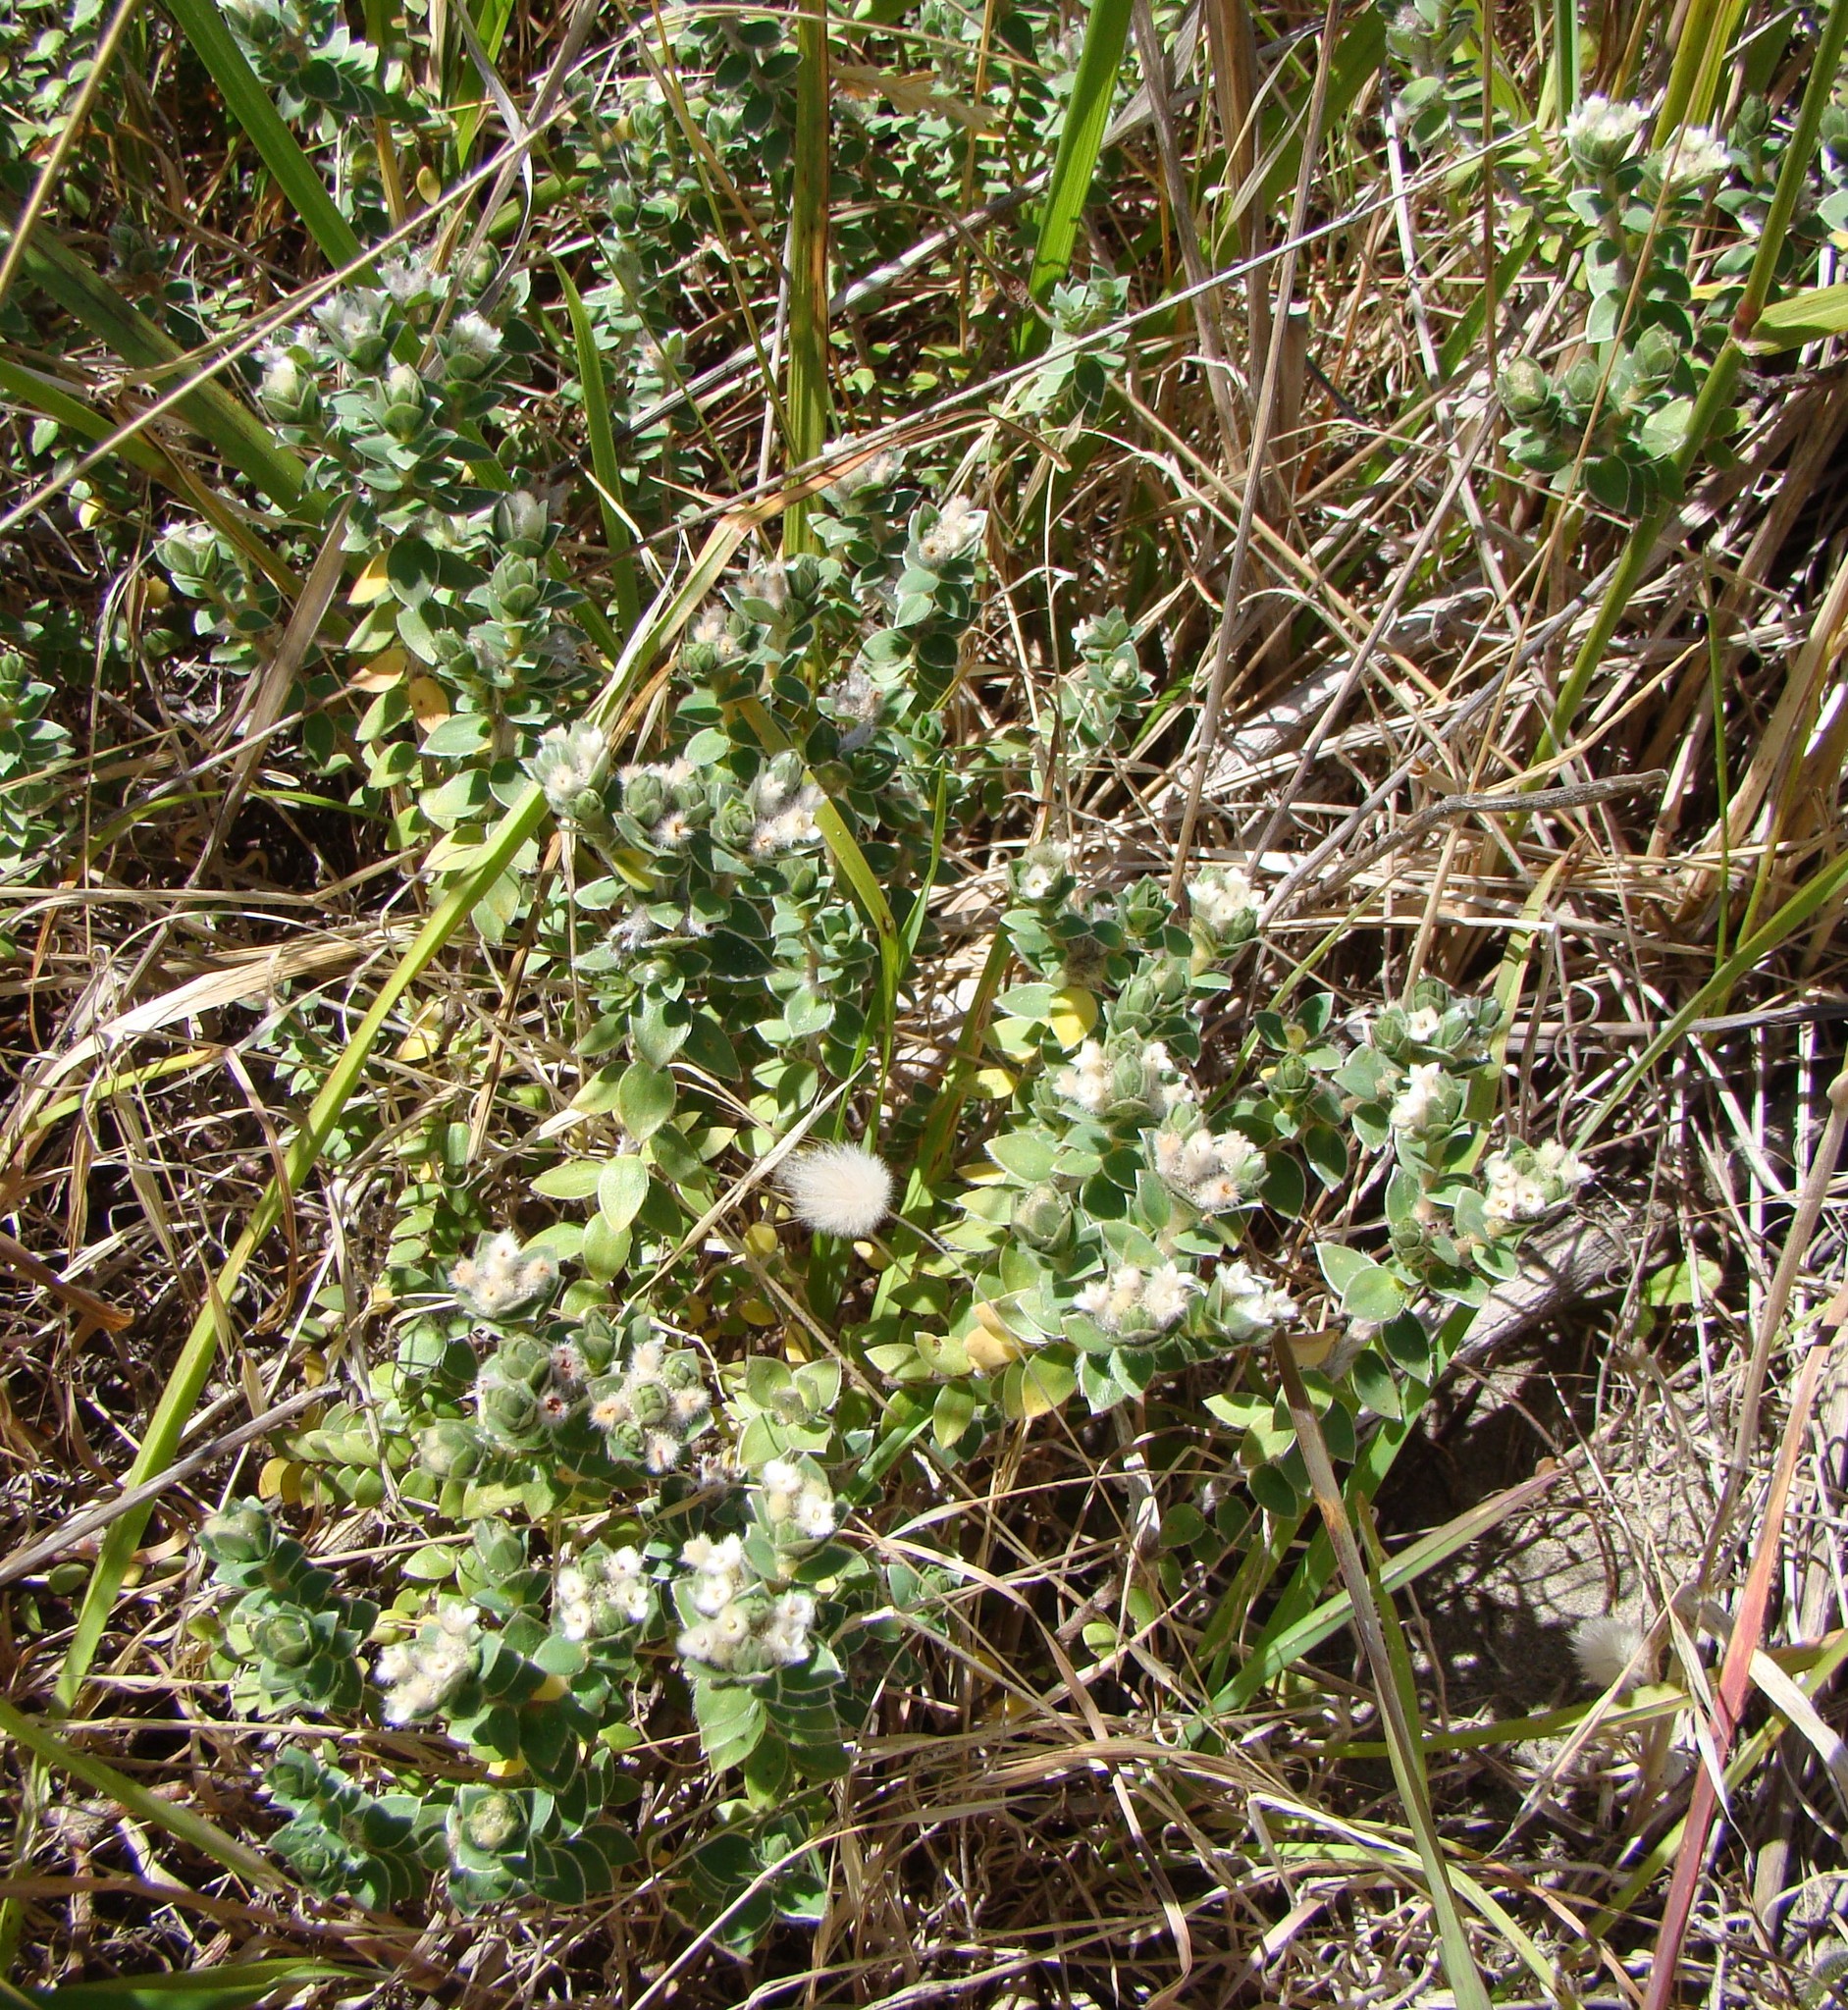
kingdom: Plantae
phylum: Tracheophyta
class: Magnoliopsida
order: Malvales
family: Thymelaeaceae
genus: Pimelea
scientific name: Pimelea villosa
